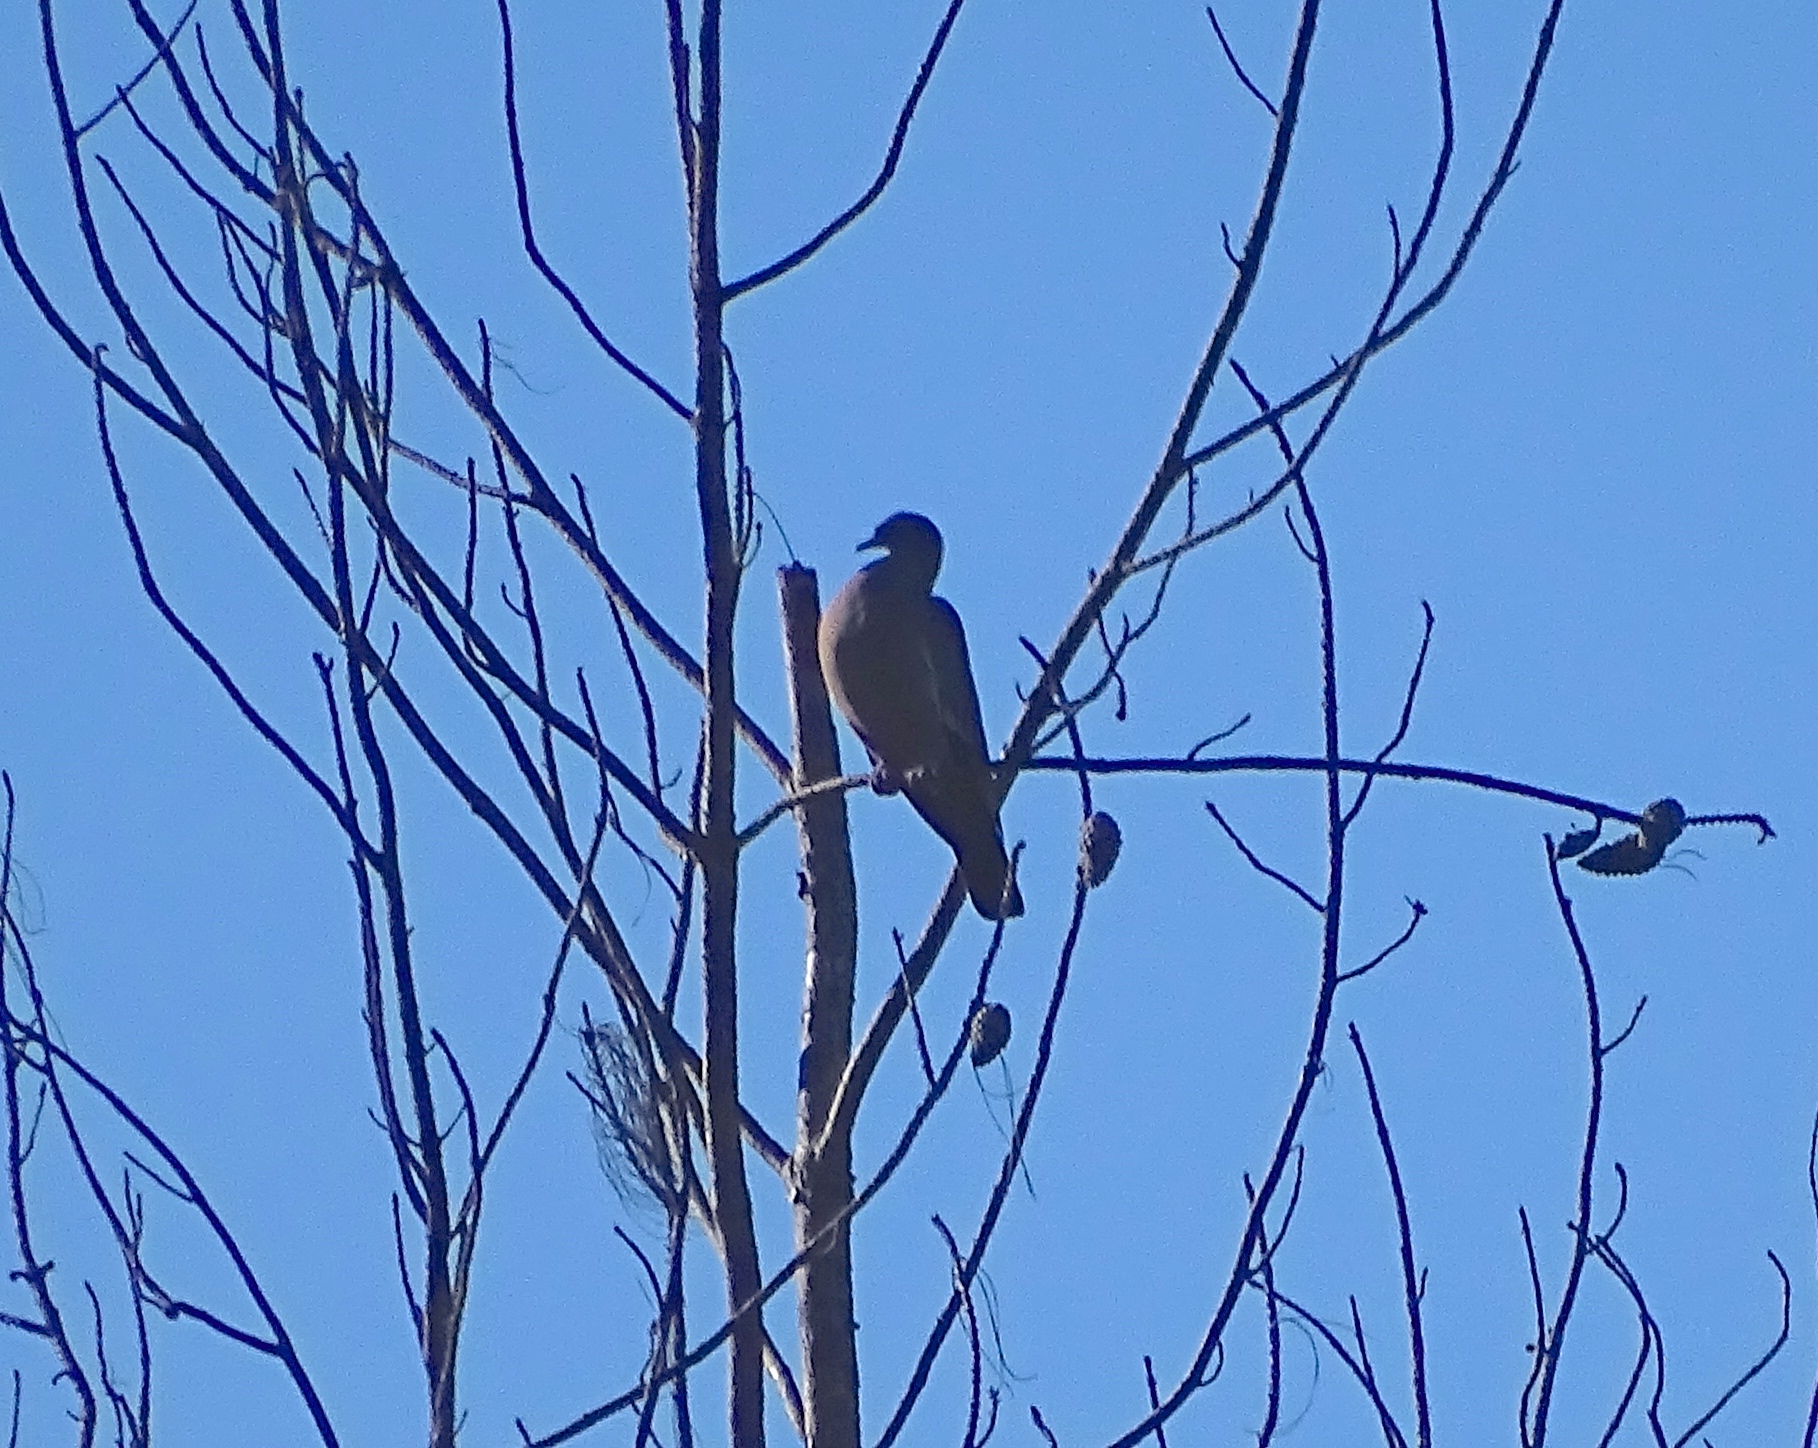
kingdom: Animalia
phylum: Chordata
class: Aves
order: Columbiformes
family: Columbidae
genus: Patagioenas
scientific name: Patagioenas inornata
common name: Plain pigeon
